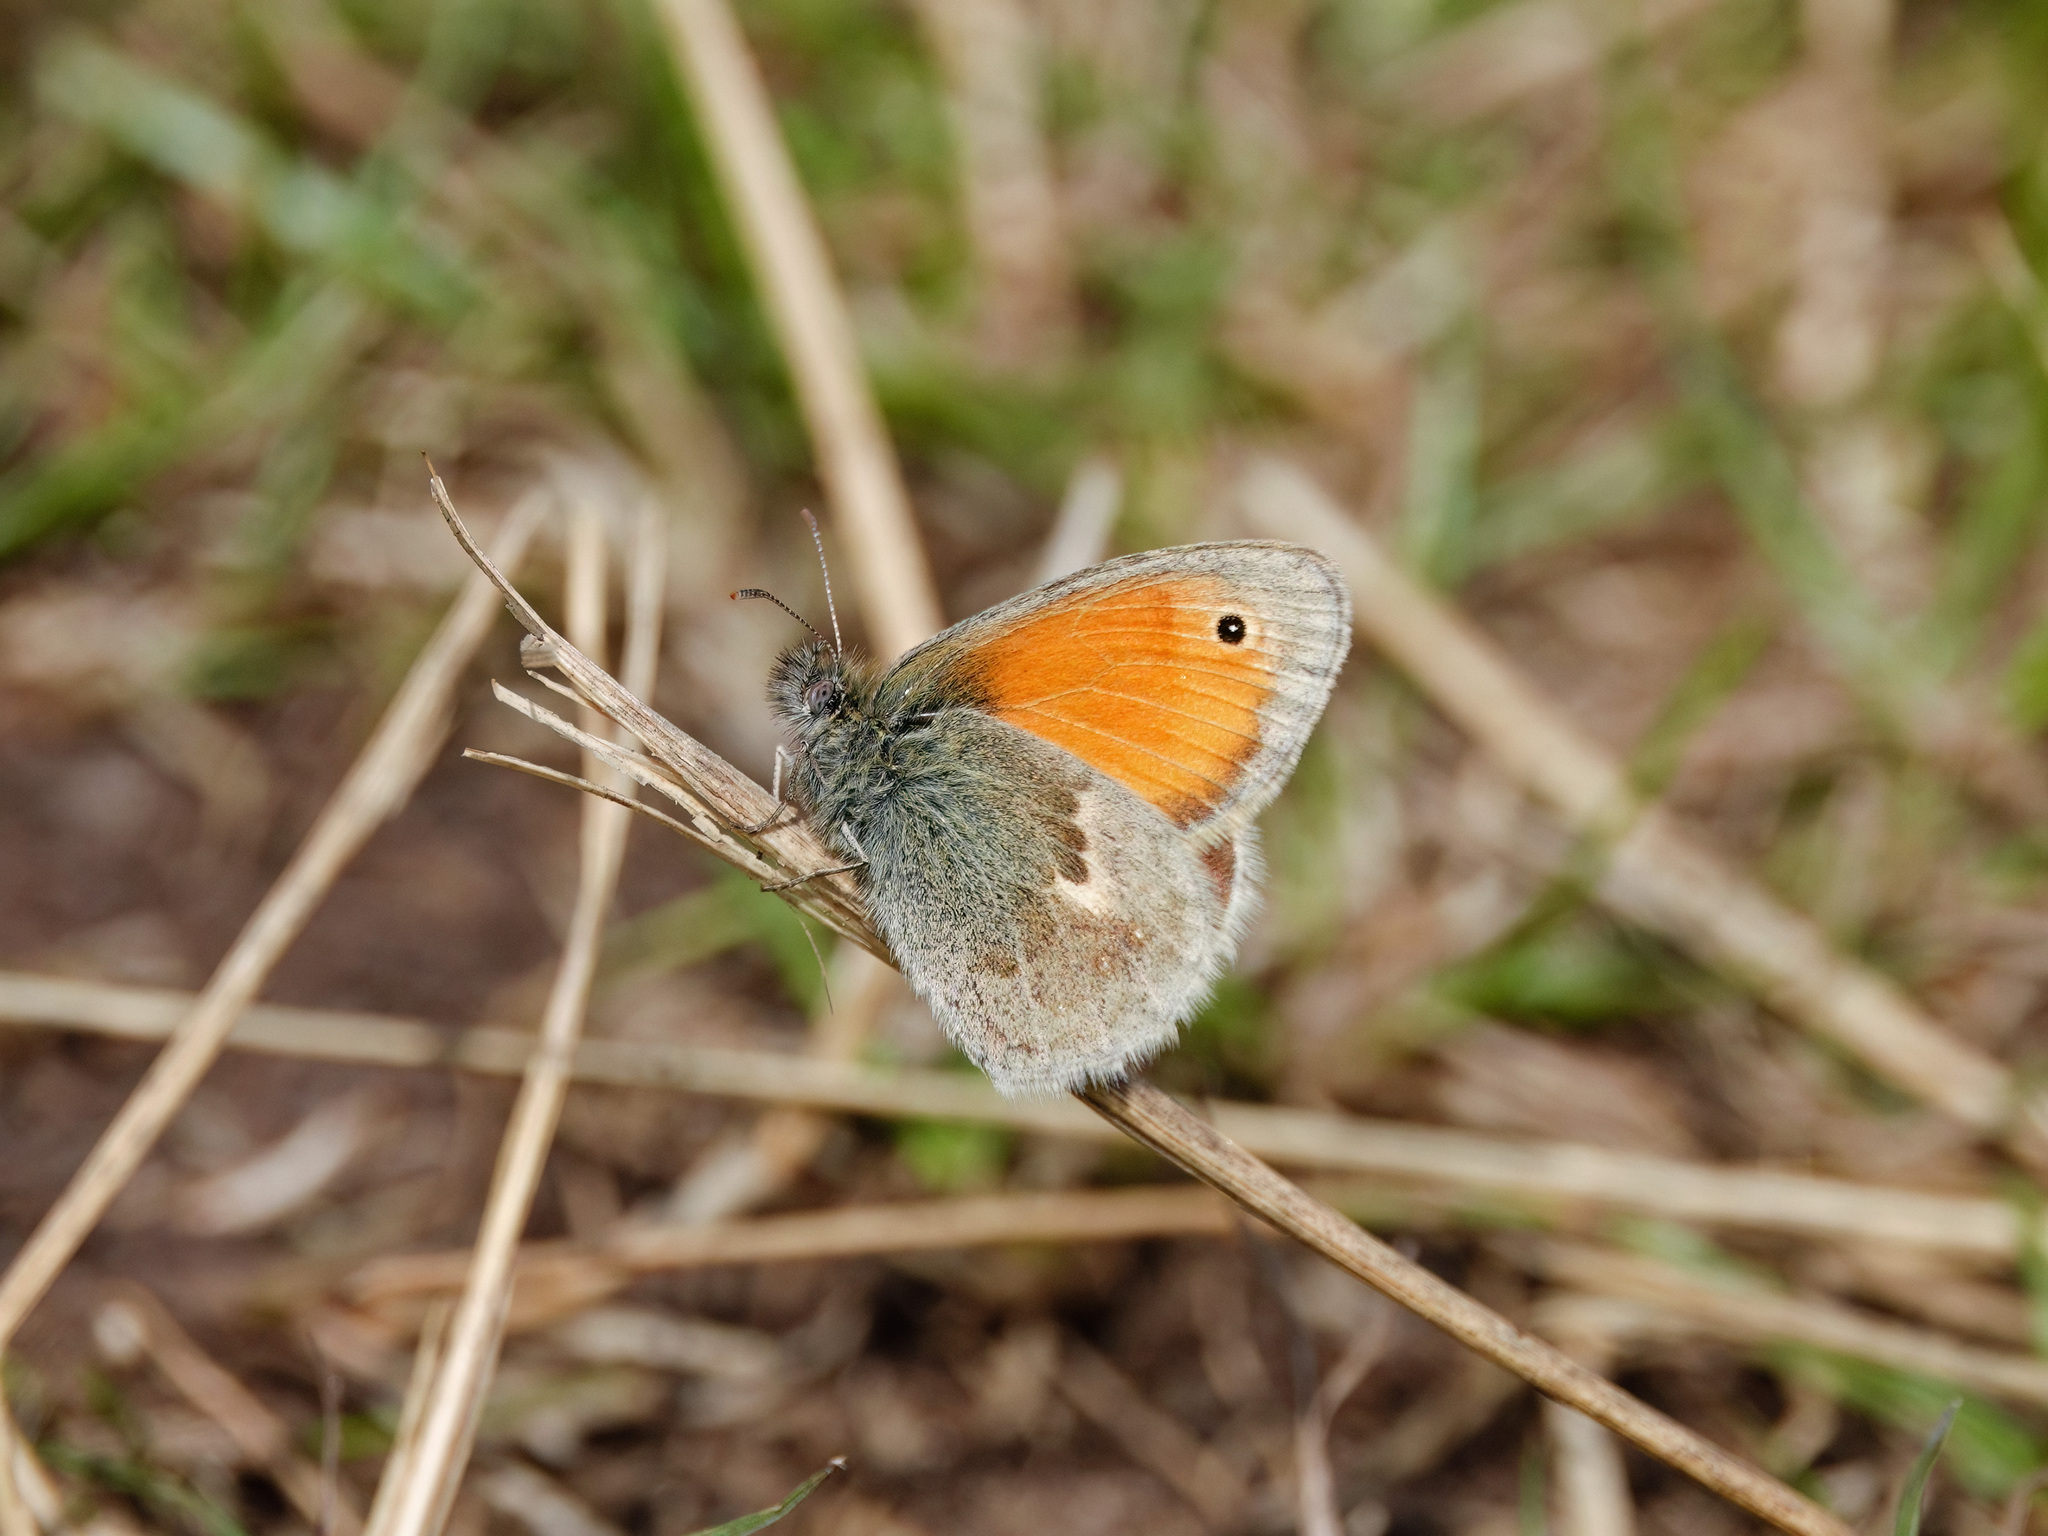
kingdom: Animalia
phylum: Arthropoda
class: Insecta
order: Lepidoptera
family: Nymphalidae
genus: Coenonympha
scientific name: Coenonympha pamphilus
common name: Small heath
